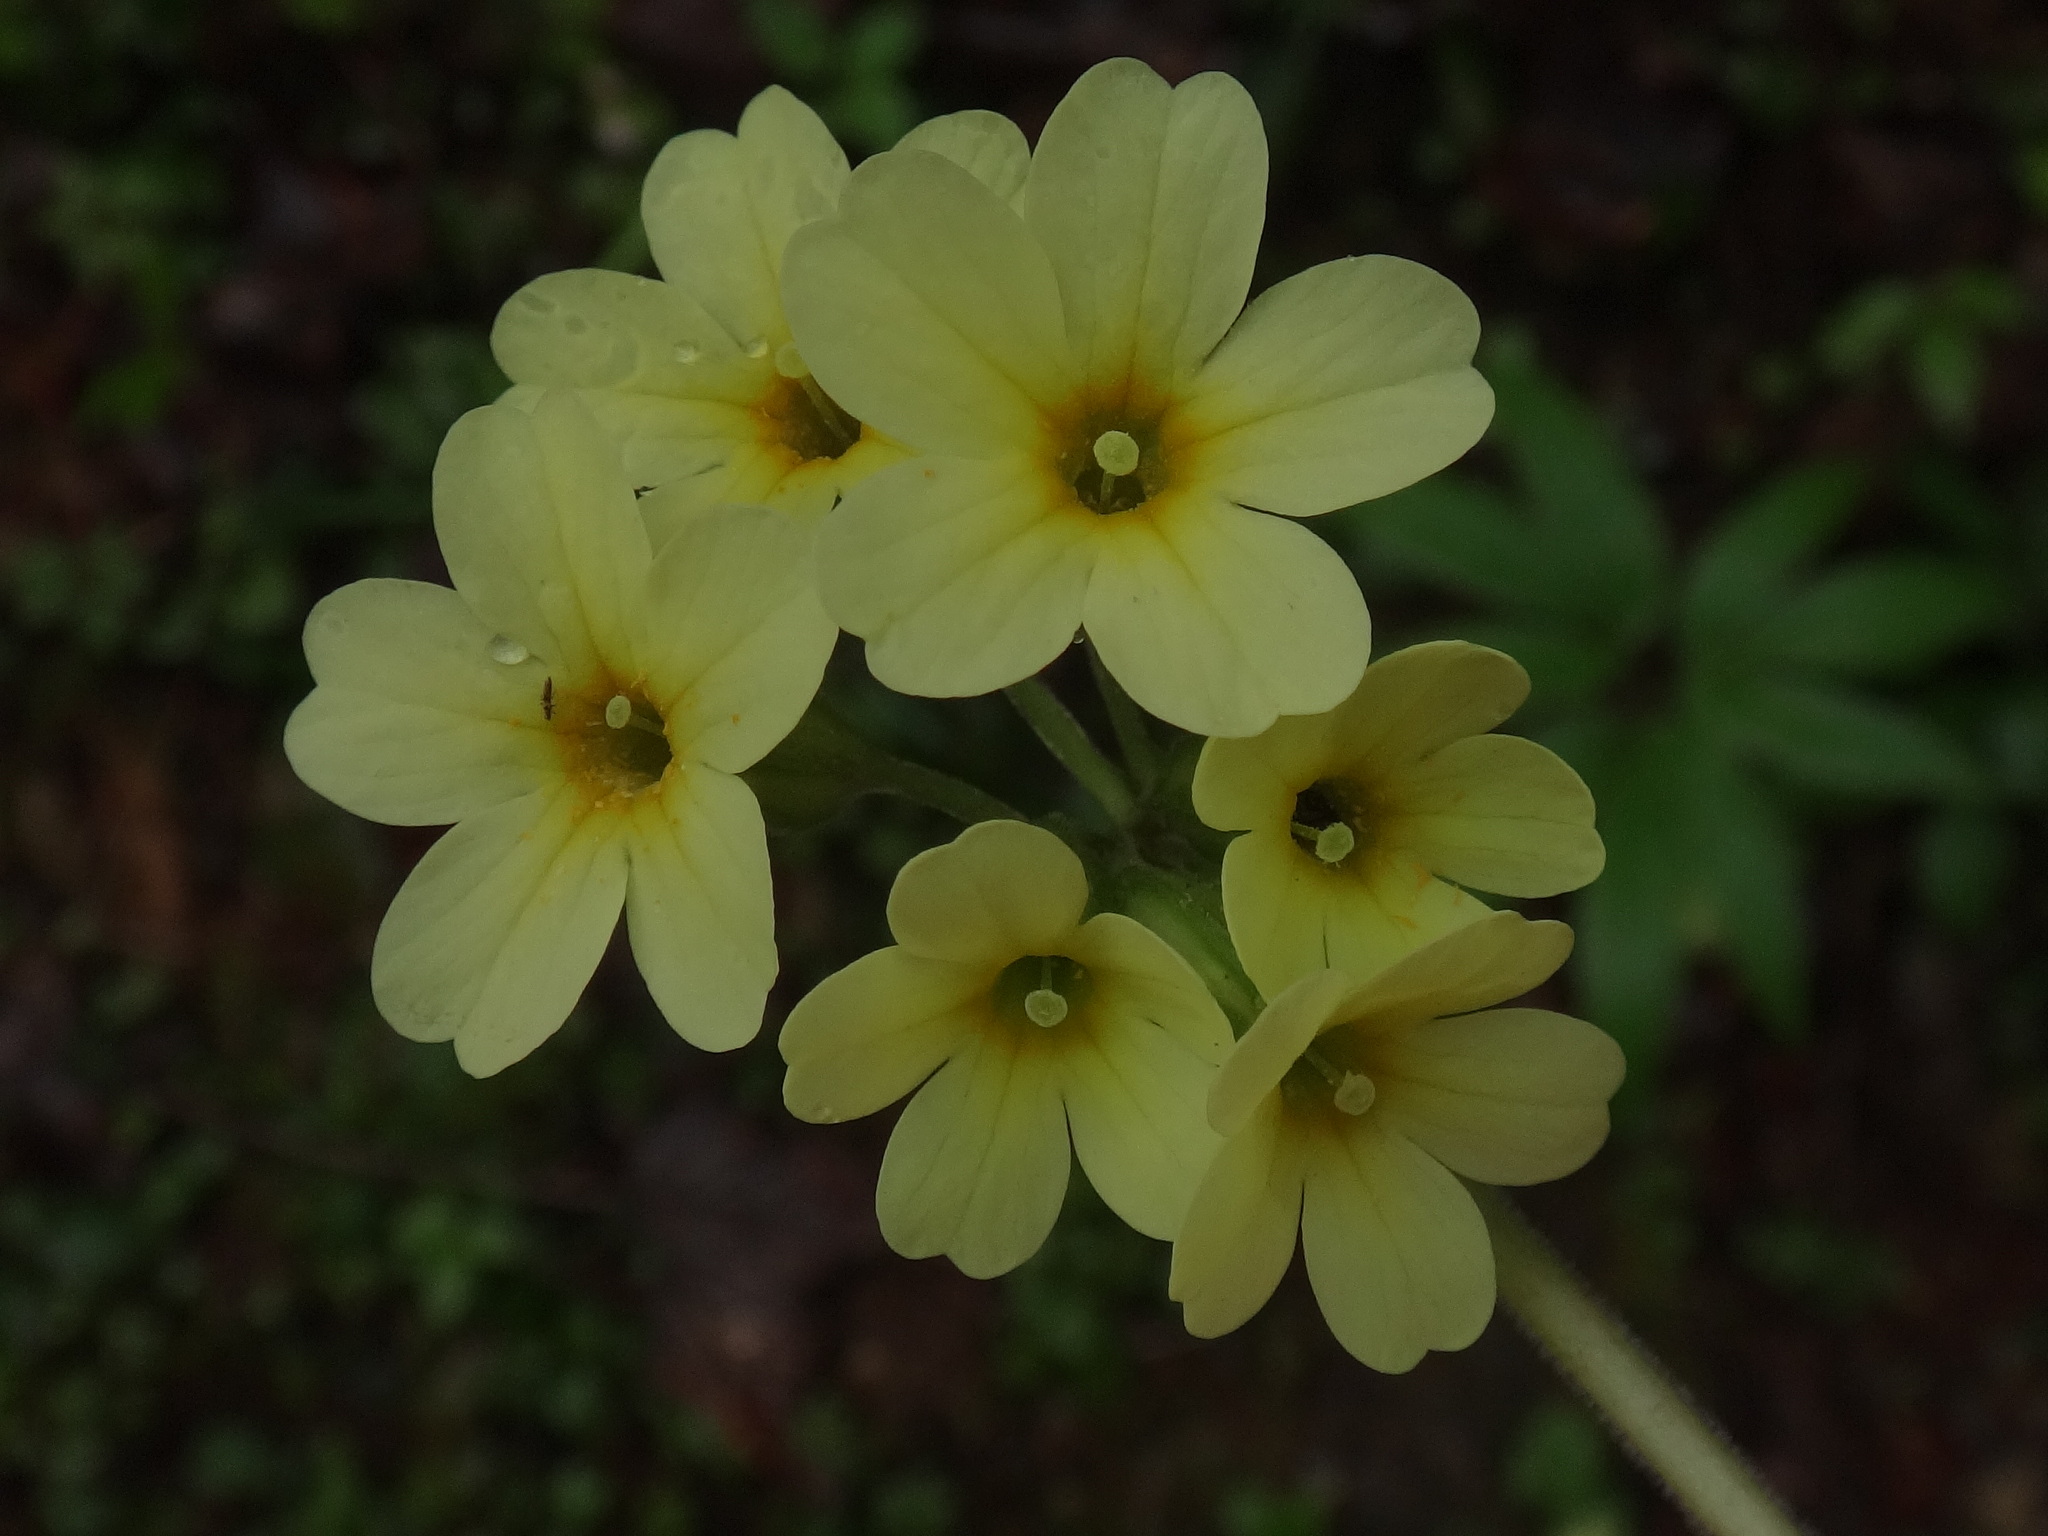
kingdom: Plantae
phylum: Tracheophyta
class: Magnoliopsida
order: Ericales
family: Primulaceae
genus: Primula
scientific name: Primula elatior
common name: Oxlip
